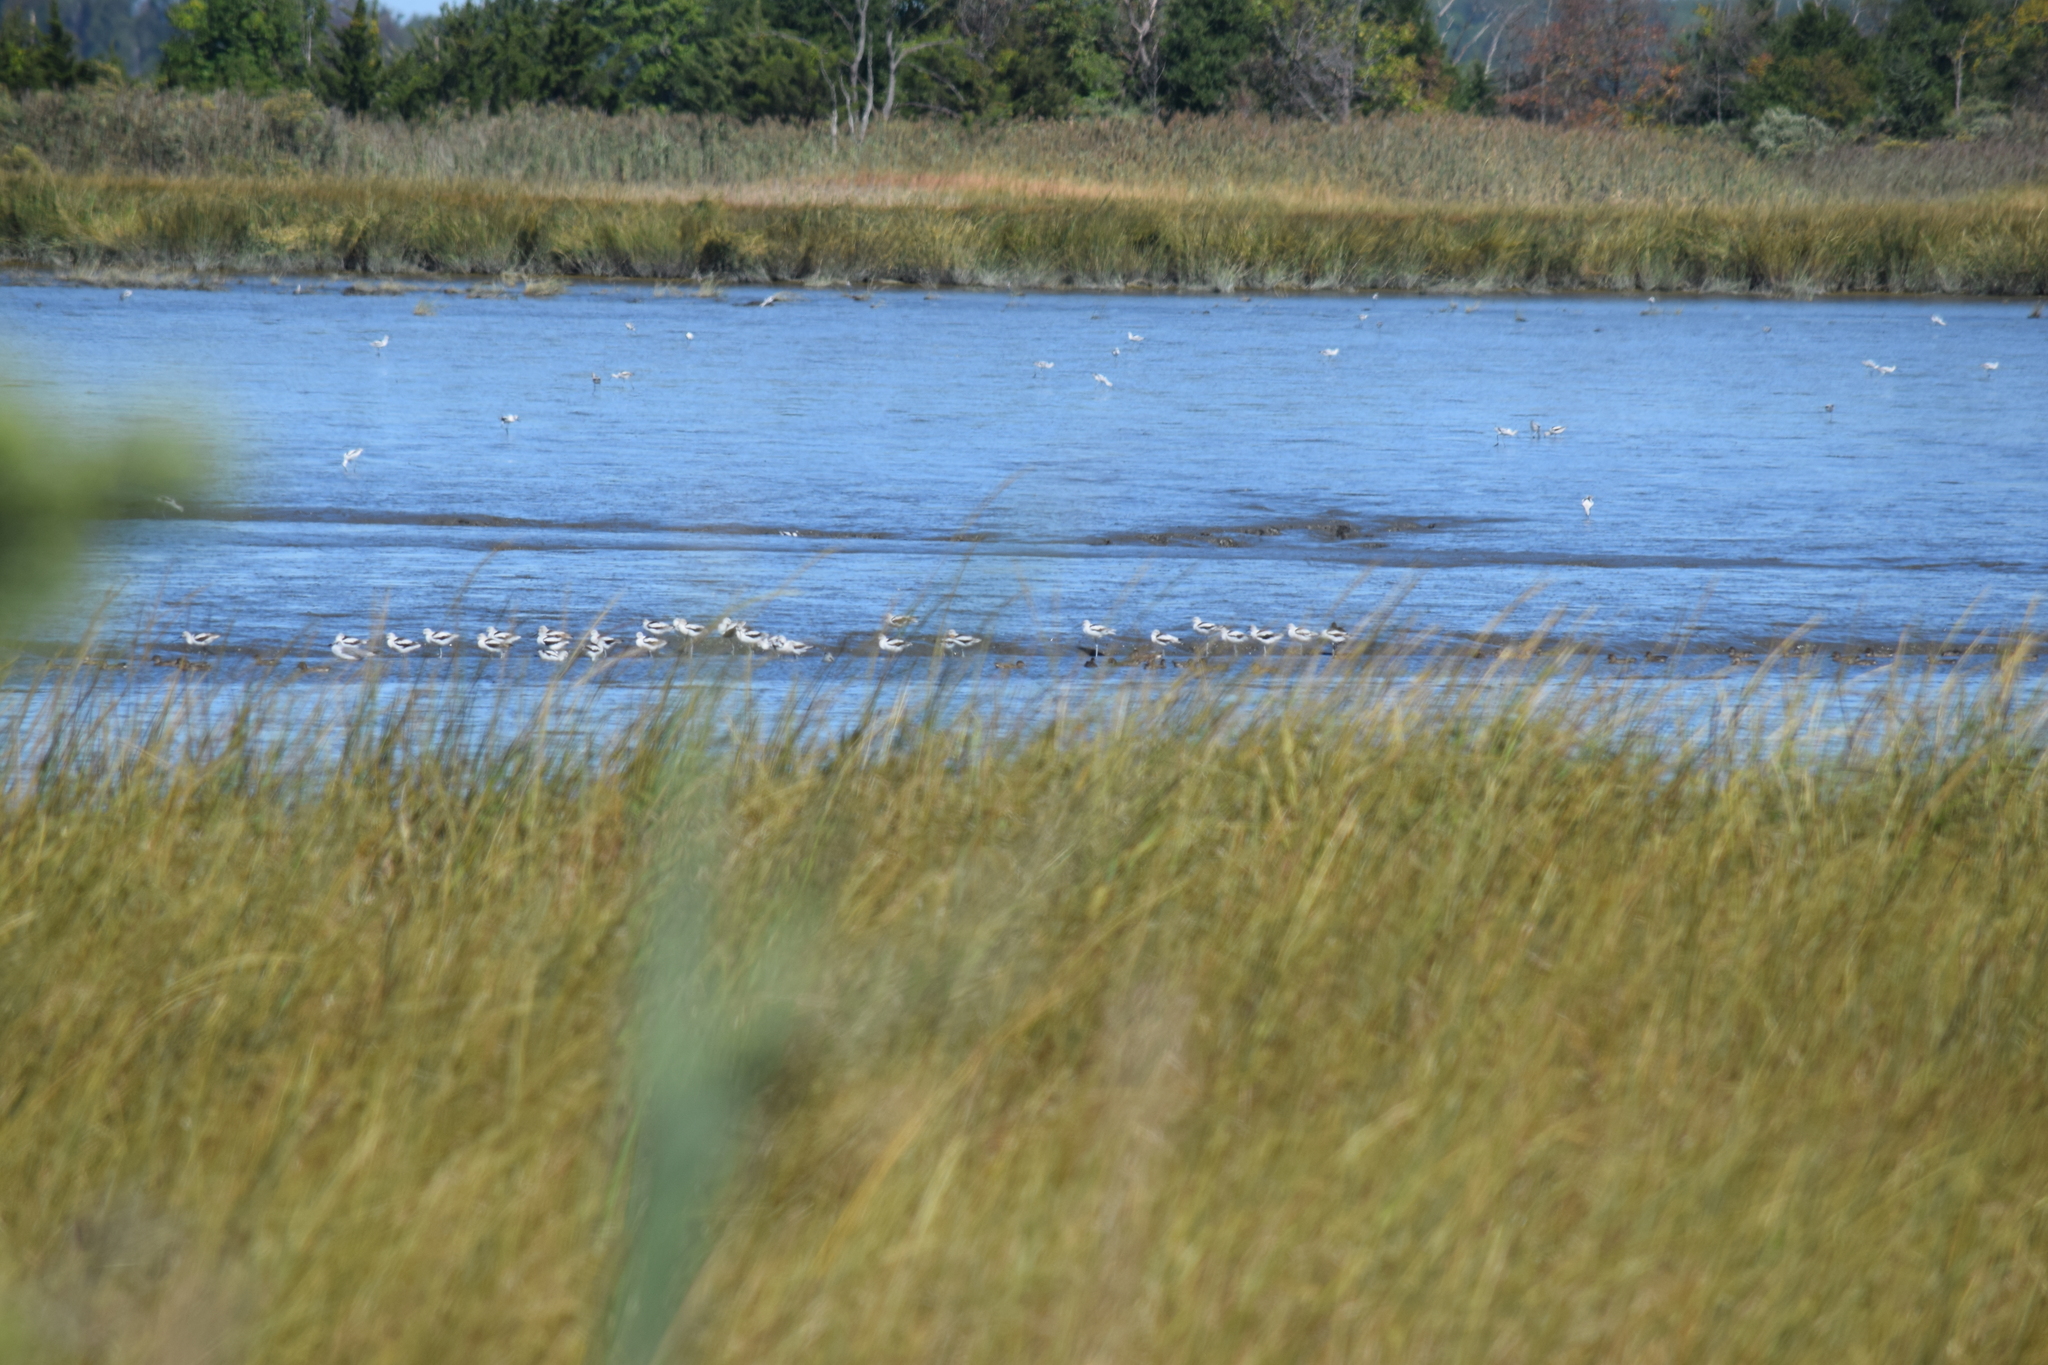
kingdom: Animalia
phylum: Chordata
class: Aves
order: Charadriiformes
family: Recurvirostridae
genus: Recurvirostra
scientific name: Recurvirostra americana
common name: American avocet
